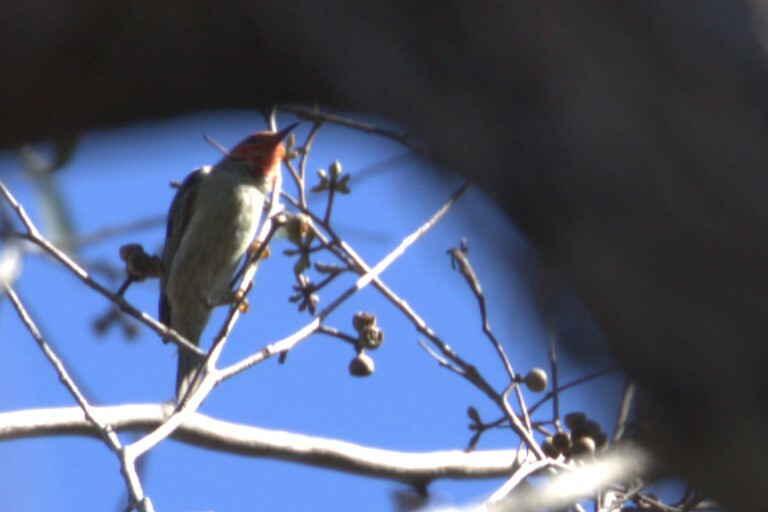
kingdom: Animalia
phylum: Chordata
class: Aves
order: Passeriformes
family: Meliphagidae
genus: Myzomela
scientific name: Myzomela sanguinolenta
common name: Scarlet myzomela
